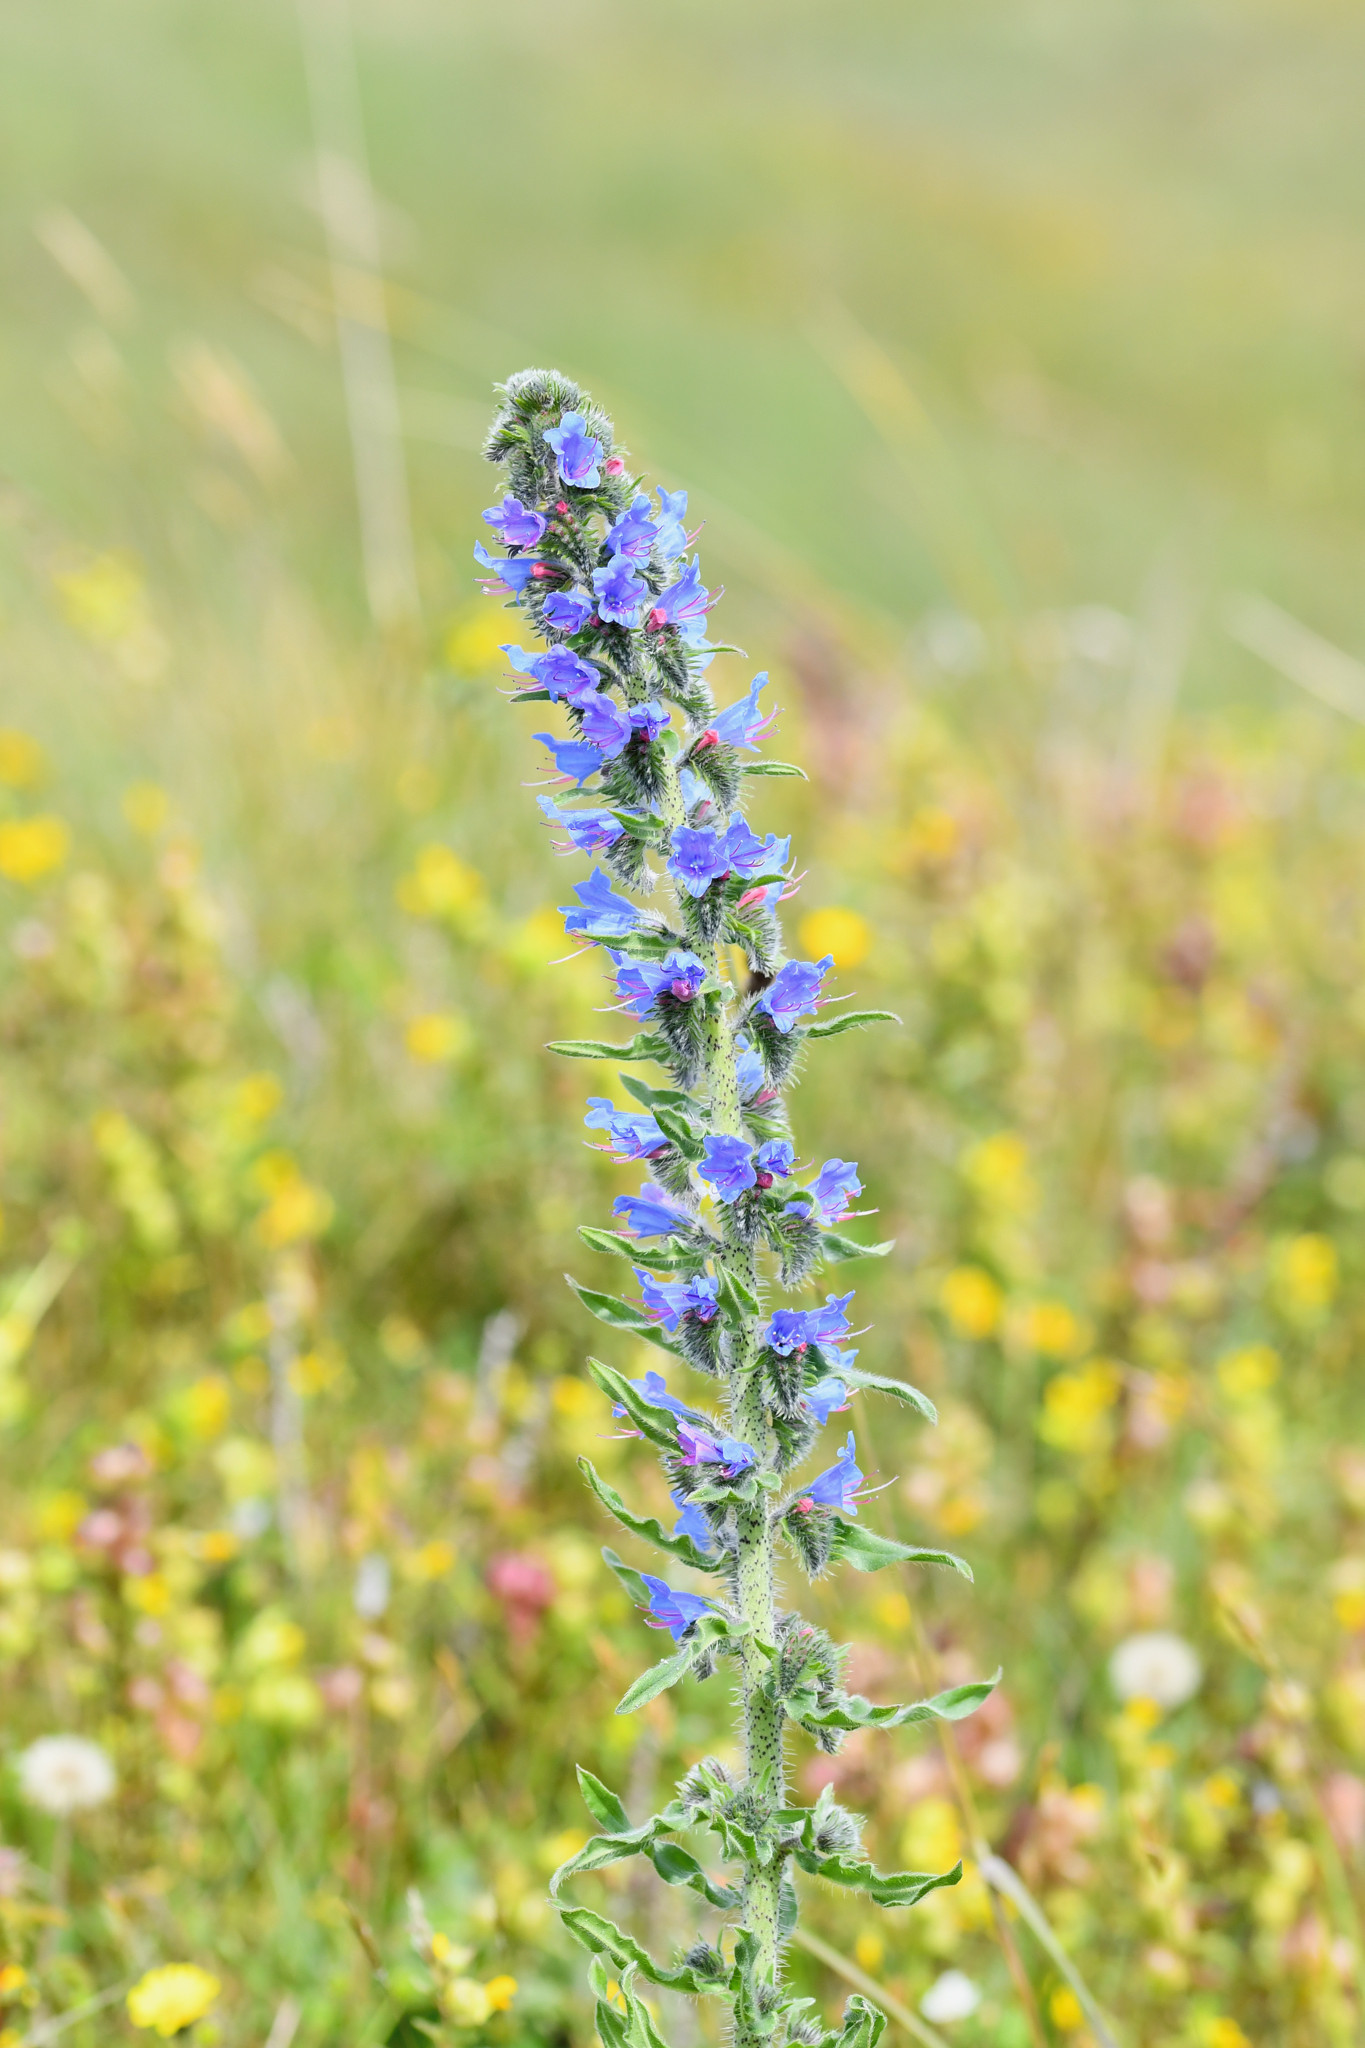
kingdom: Plantae
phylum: Tracheophyta
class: Magnoliopsida
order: Boraginales
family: Boraginaceae
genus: Echium
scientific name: Echium vulgare
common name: Common viper's bugloss
